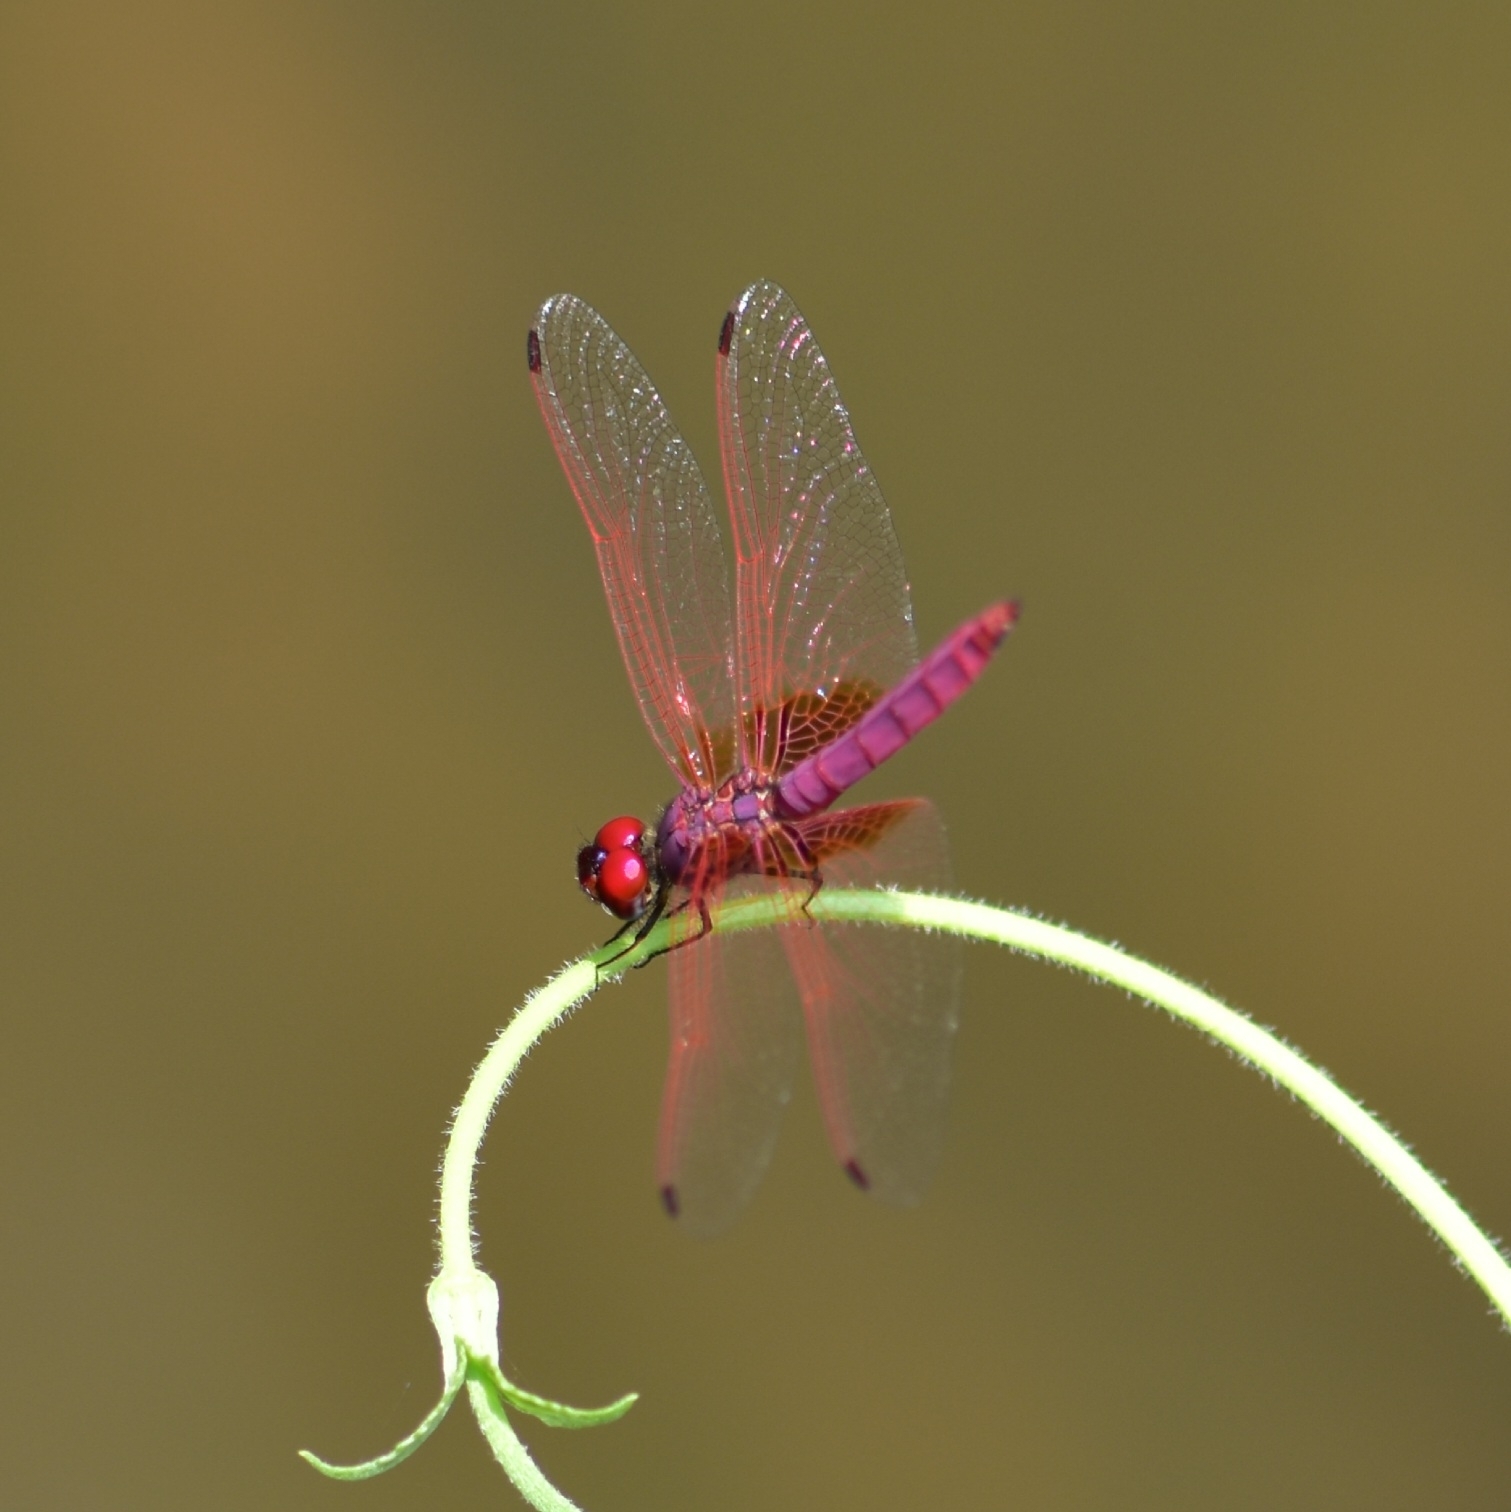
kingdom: Animalia
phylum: Arthropoda
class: Insecta
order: Odonata
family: Libellulidae
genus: Trithemis
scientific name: Trithemis aurora
